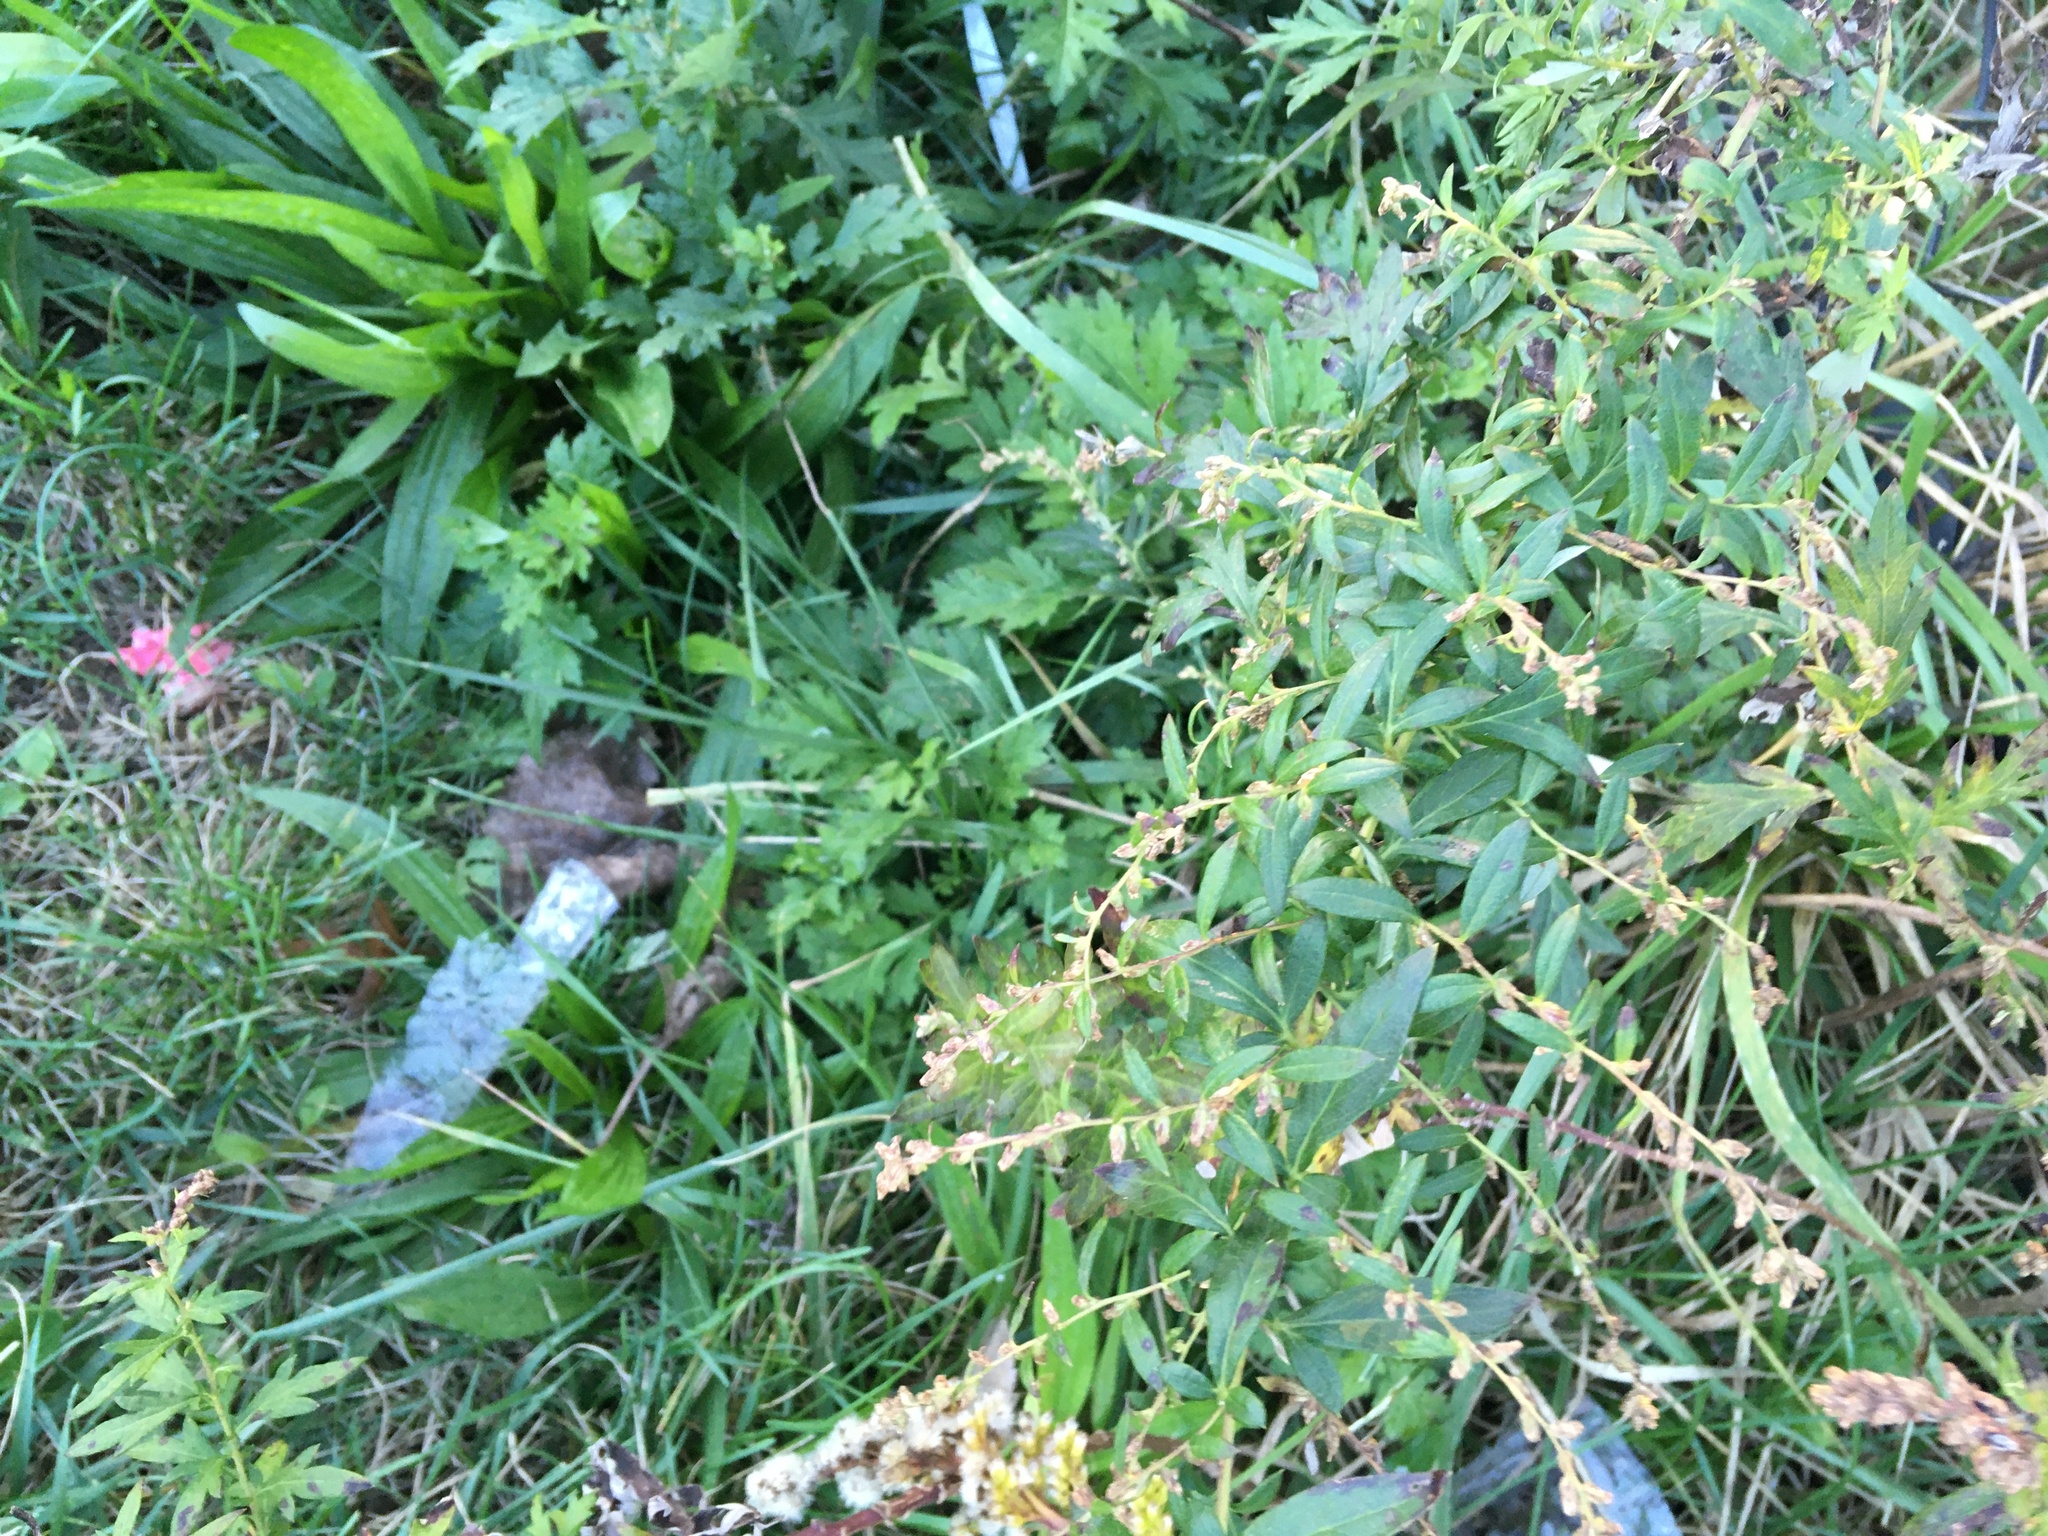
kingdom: Plantae
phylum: Tracheophyta
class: Magnoliopsida
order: Asterales
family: Asteraceae
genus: Artemisia
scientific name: Artemisia vulgaris
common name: Mugwort
